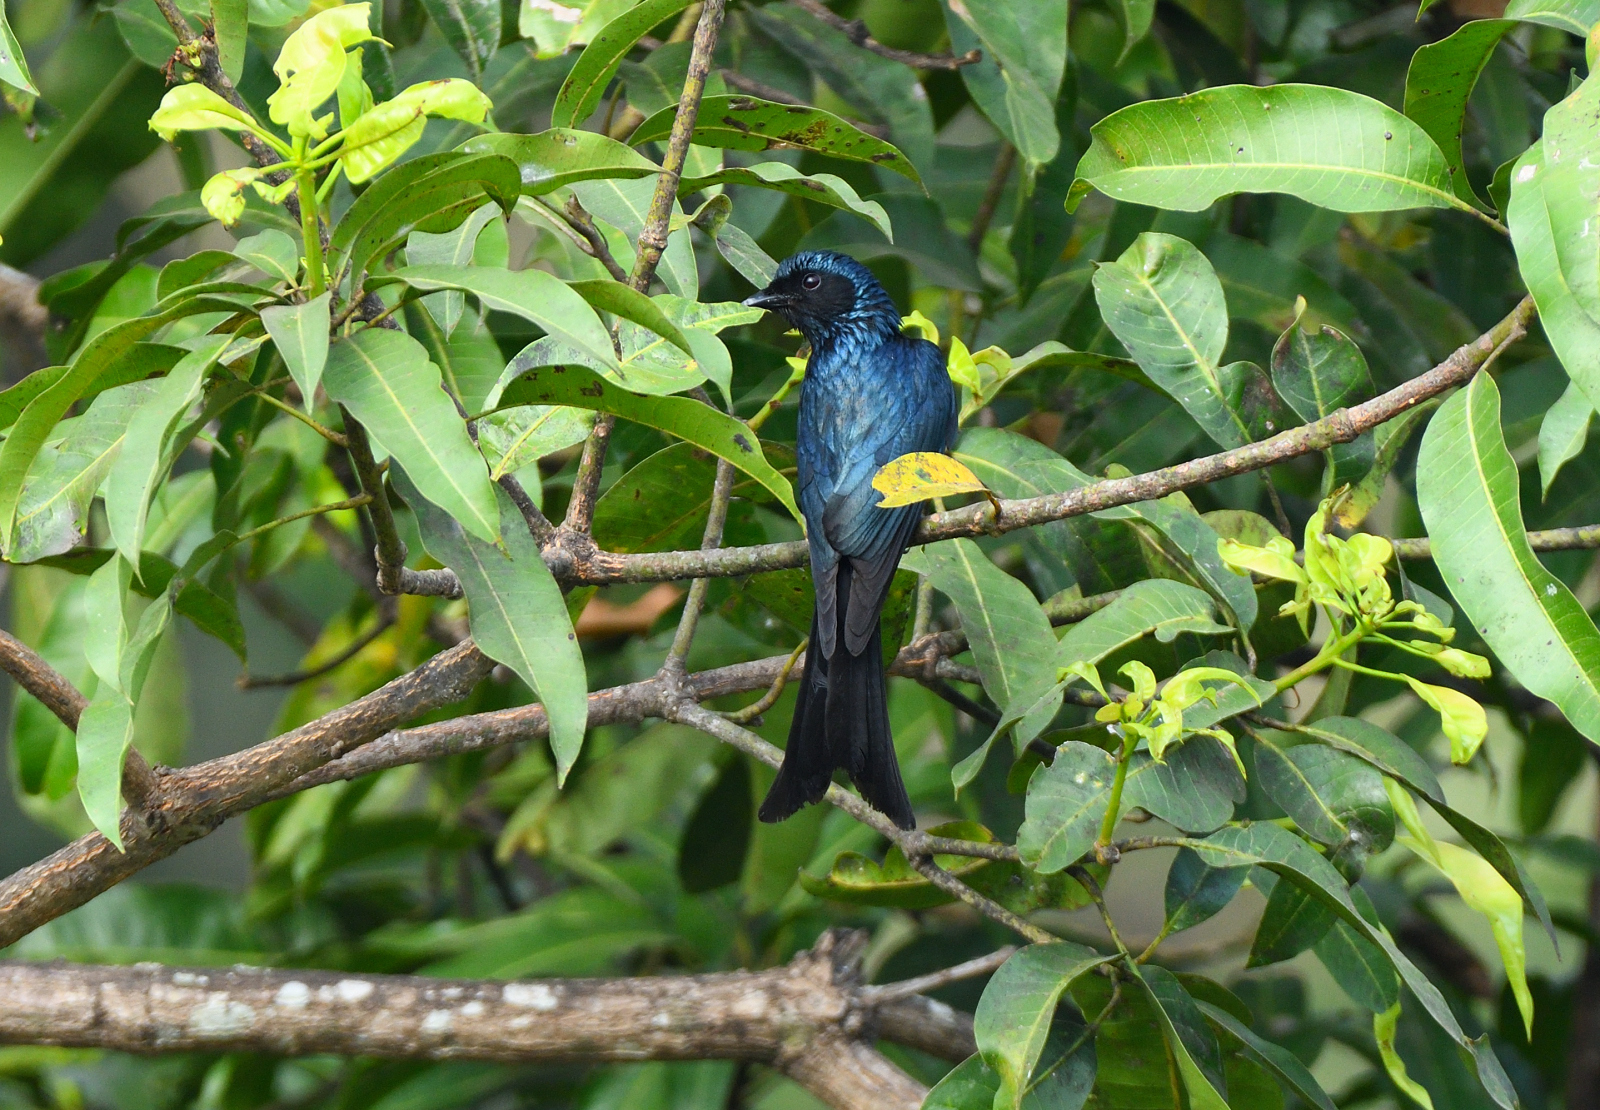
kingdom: Animalia
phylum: Chordata
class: Aves
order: Passeriformes
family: Dicruridae
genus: Dicrurus
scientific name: Dicrurus aeneus
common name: Bronzed drongo
